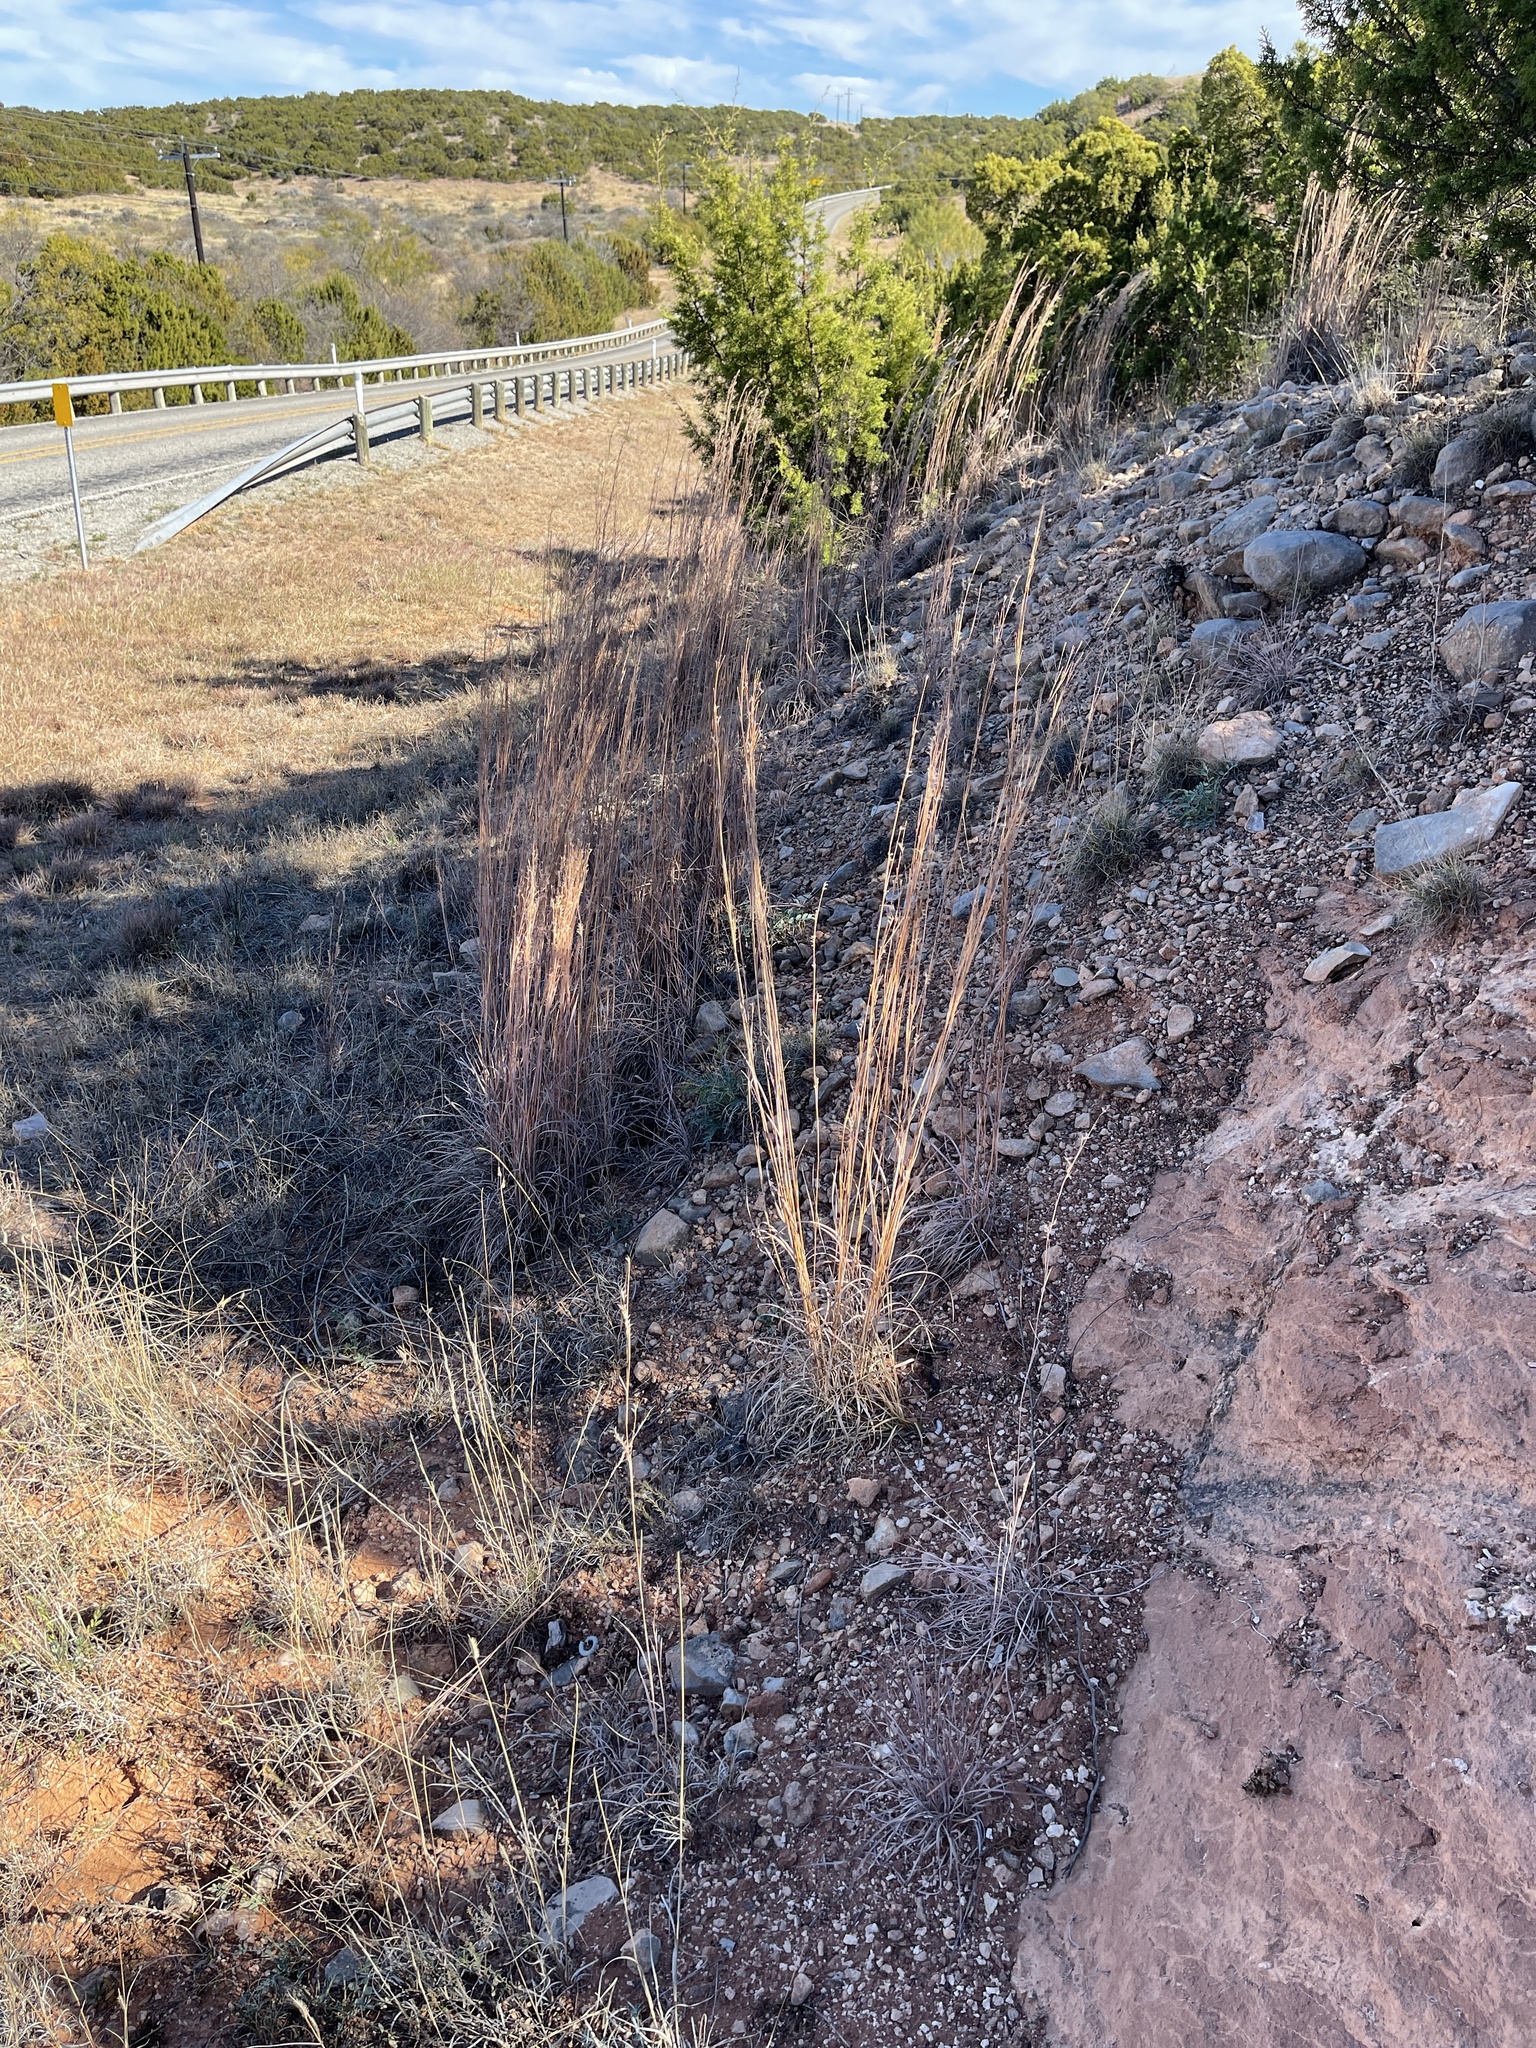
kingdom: Plantae
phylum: Tracheophyta
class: Liliopsida
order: Poales
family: Poaceae
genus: Schizachyrium
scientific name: Schizachyrium scoparium
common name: Little bluestem
